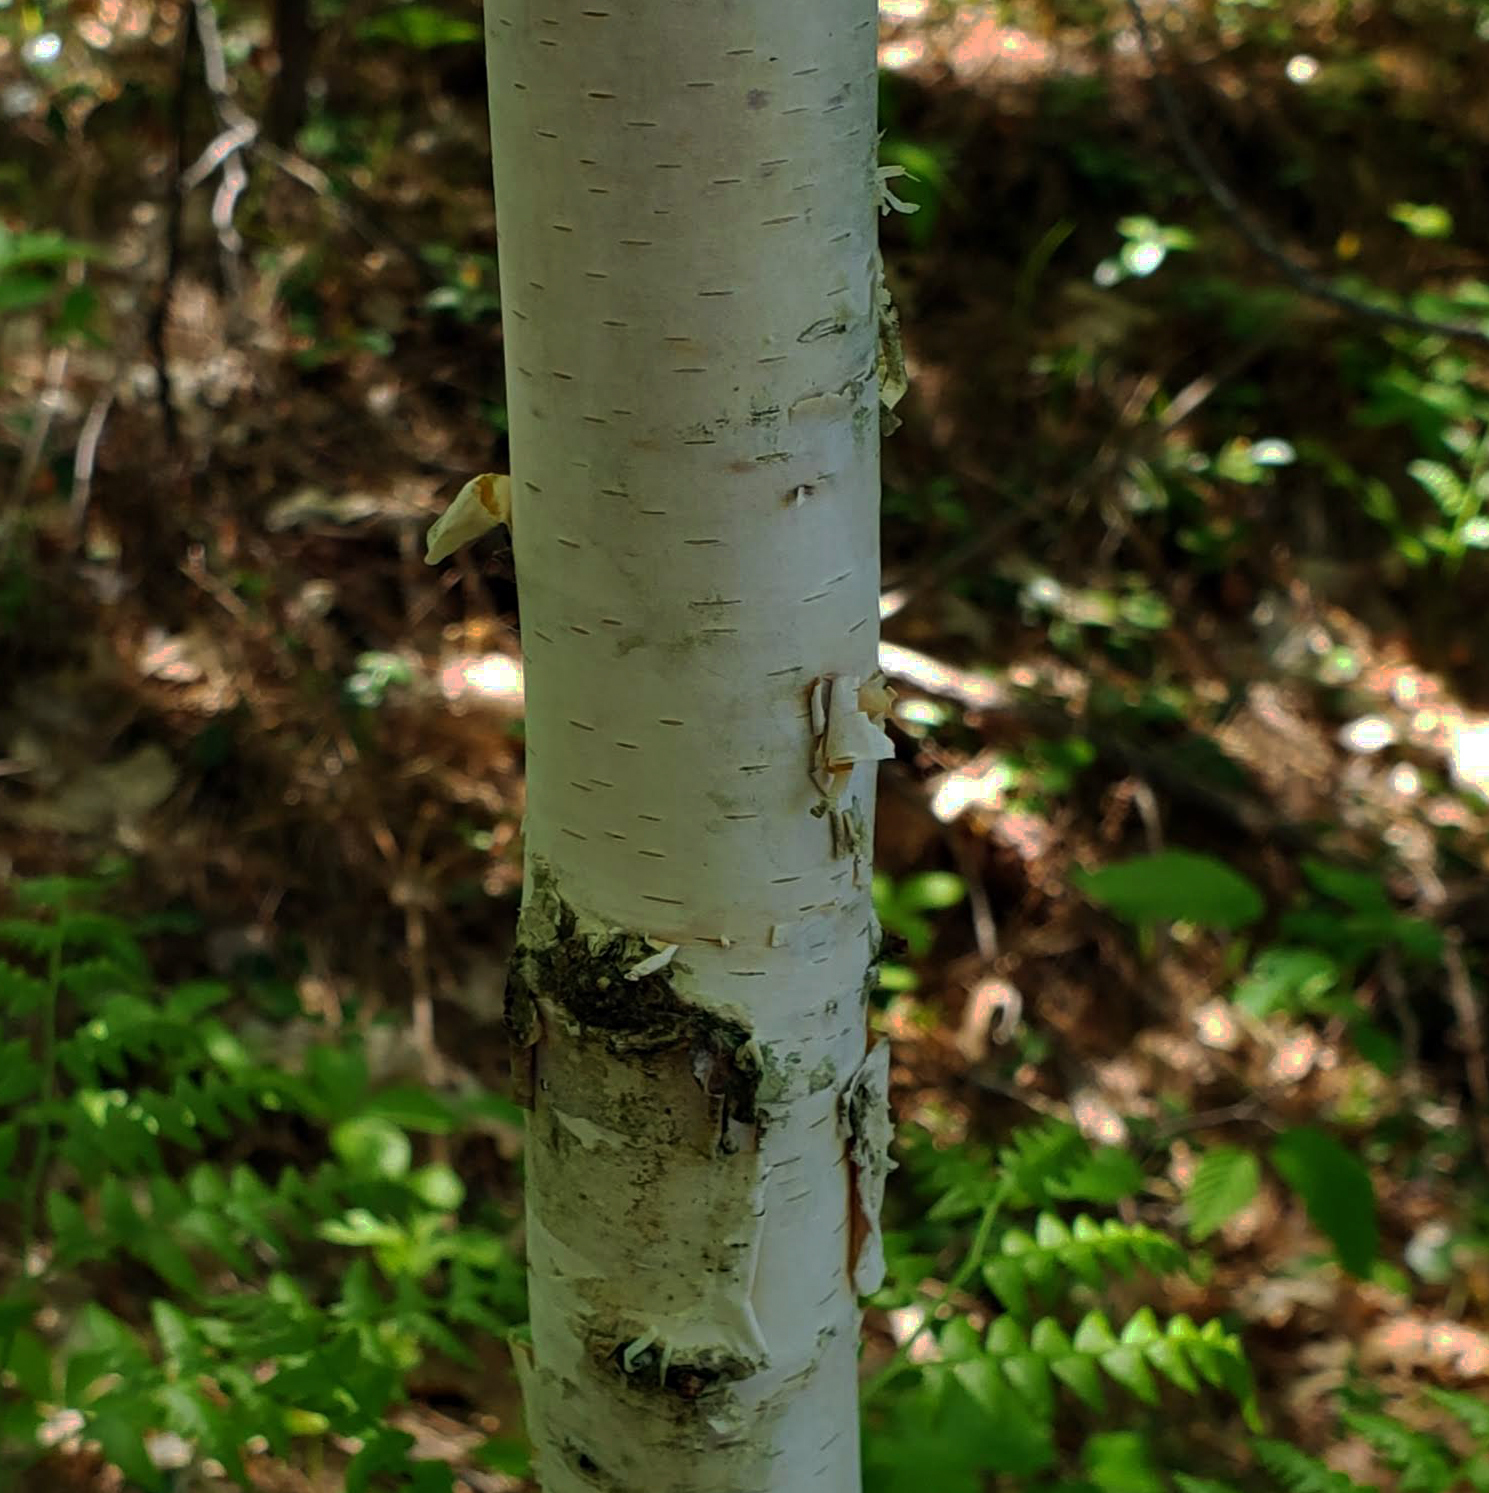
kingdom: Plantae
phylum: Tracheophyta
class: Magnoliopsida
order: Fagales
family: Betulaceae
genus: Betula
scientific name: Betula papyrifera
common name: Paper birch
